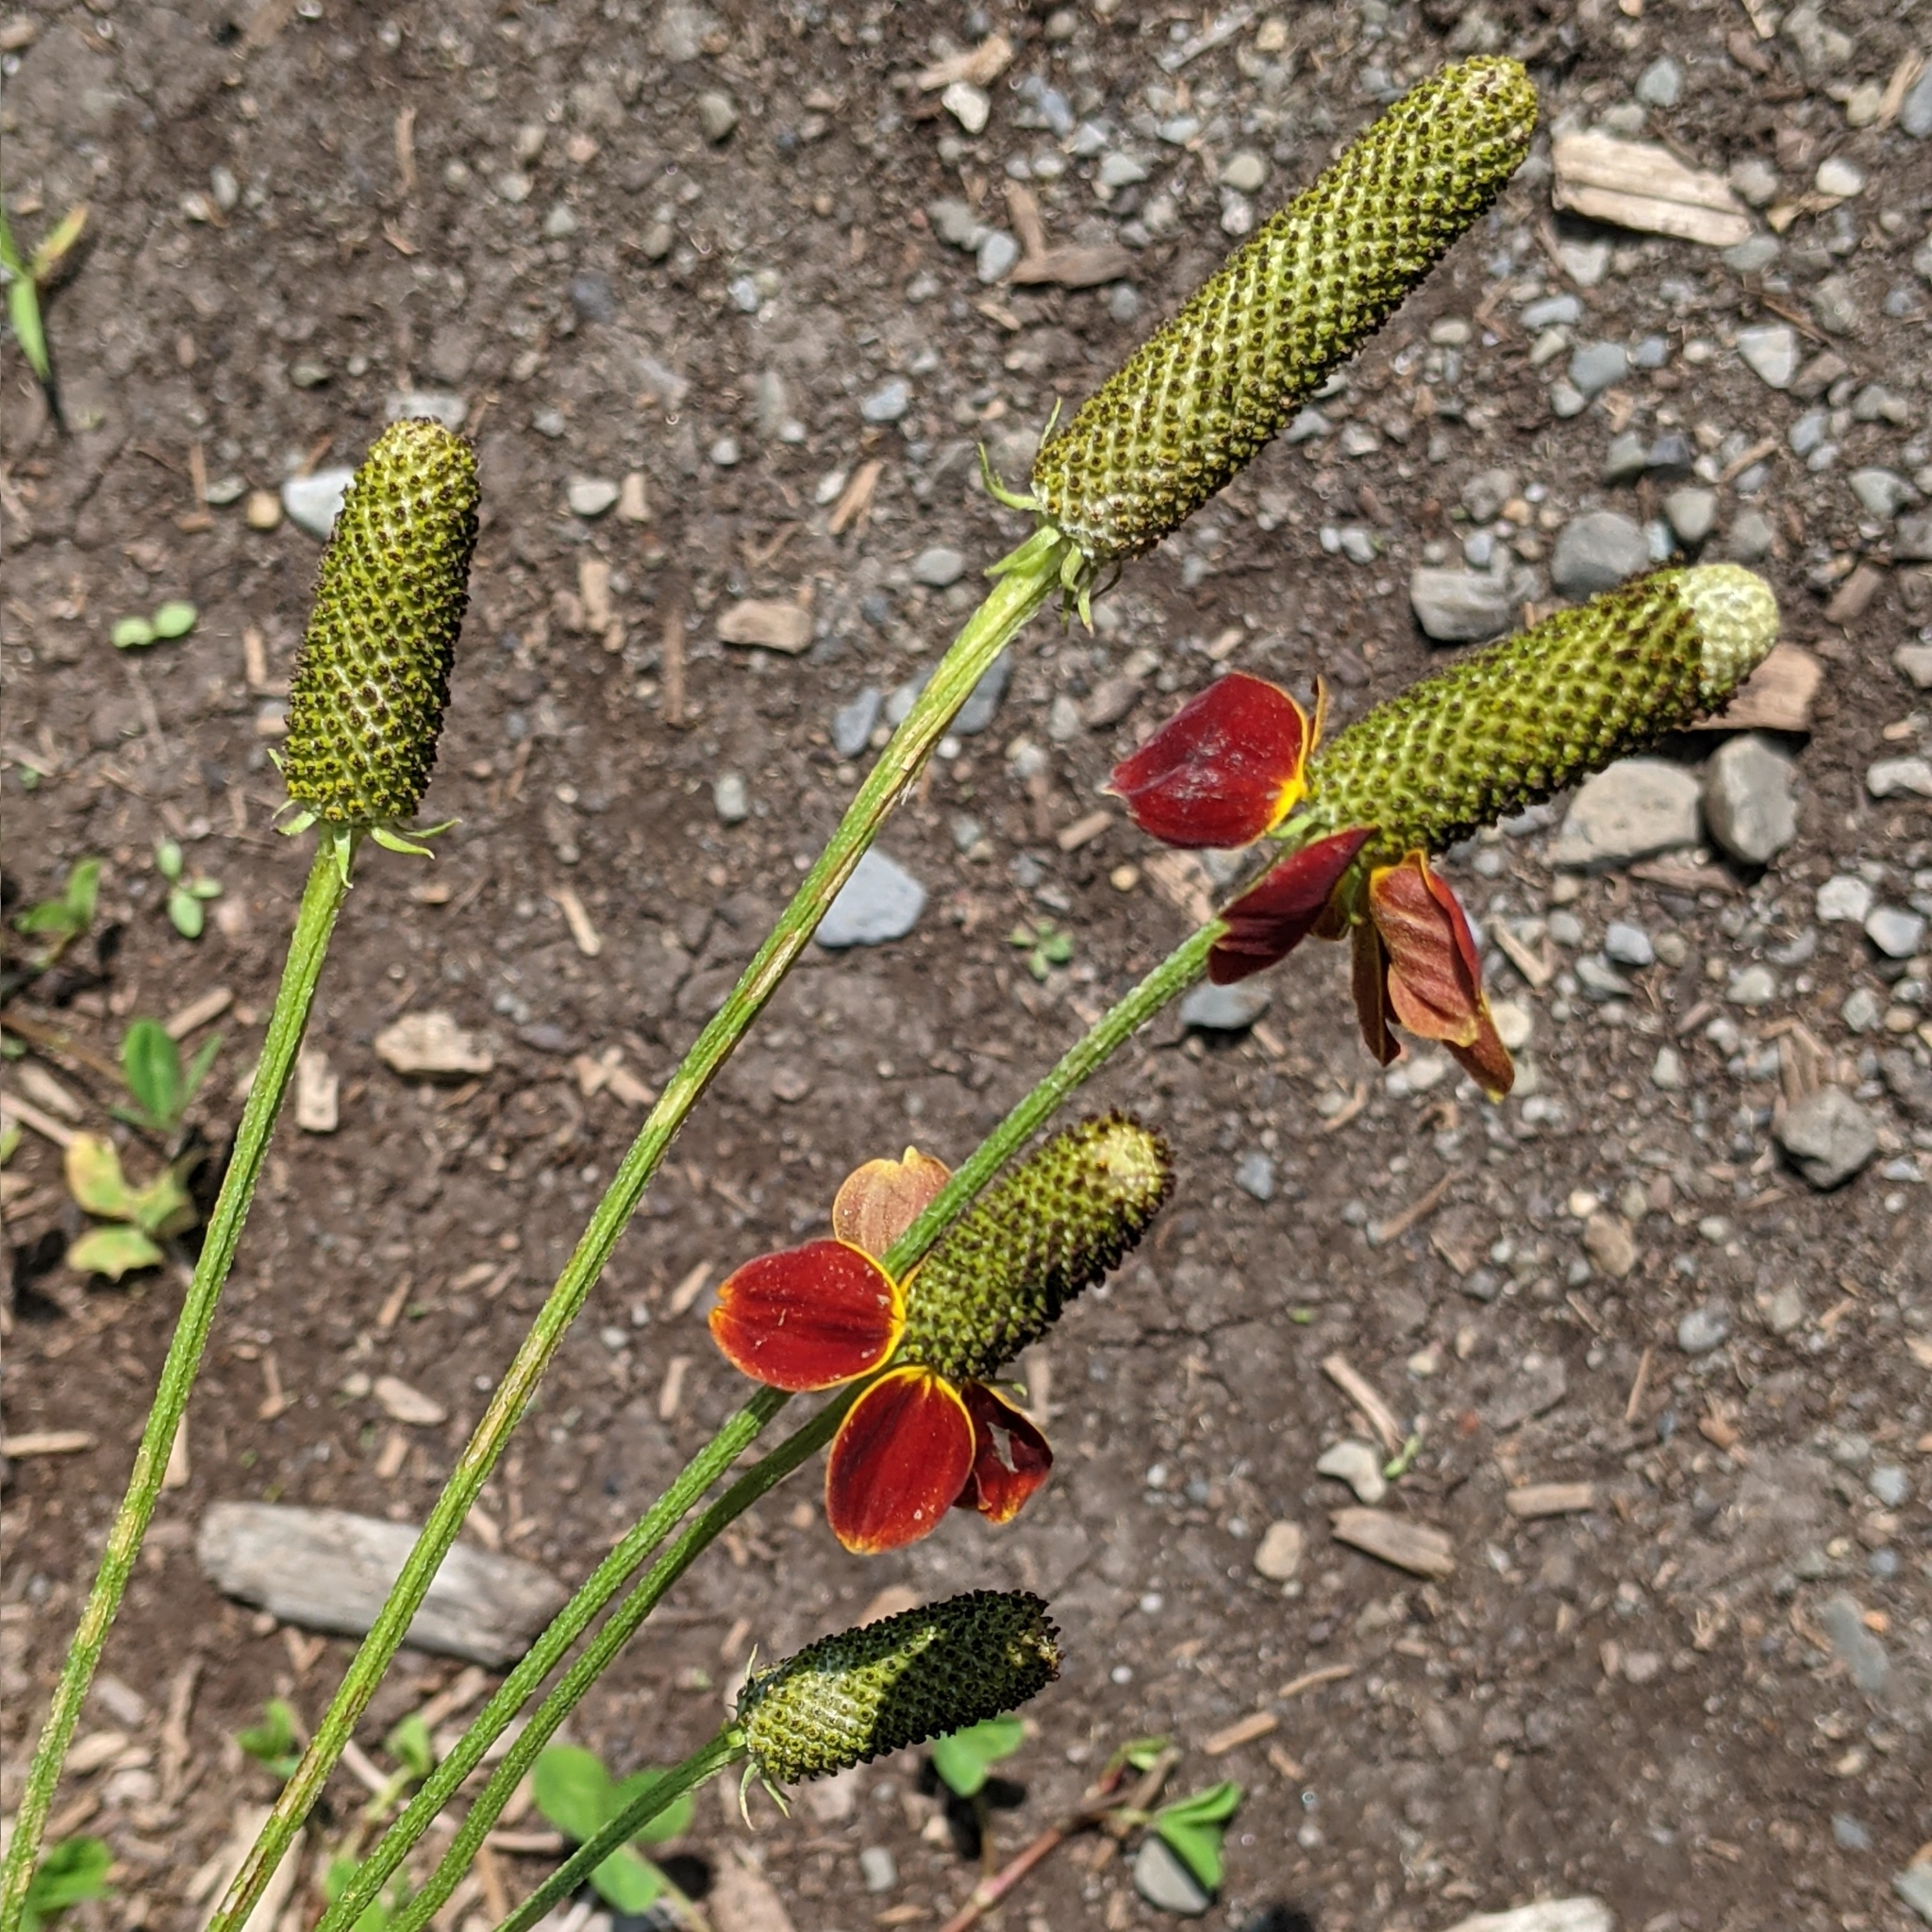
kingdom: Plantae
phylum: Tracheophyta
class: Magnoliopsida
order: Asterales
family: Asteraceae
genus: Ratibida
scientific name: Ratibida columnifera
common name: Prairie coneflower
